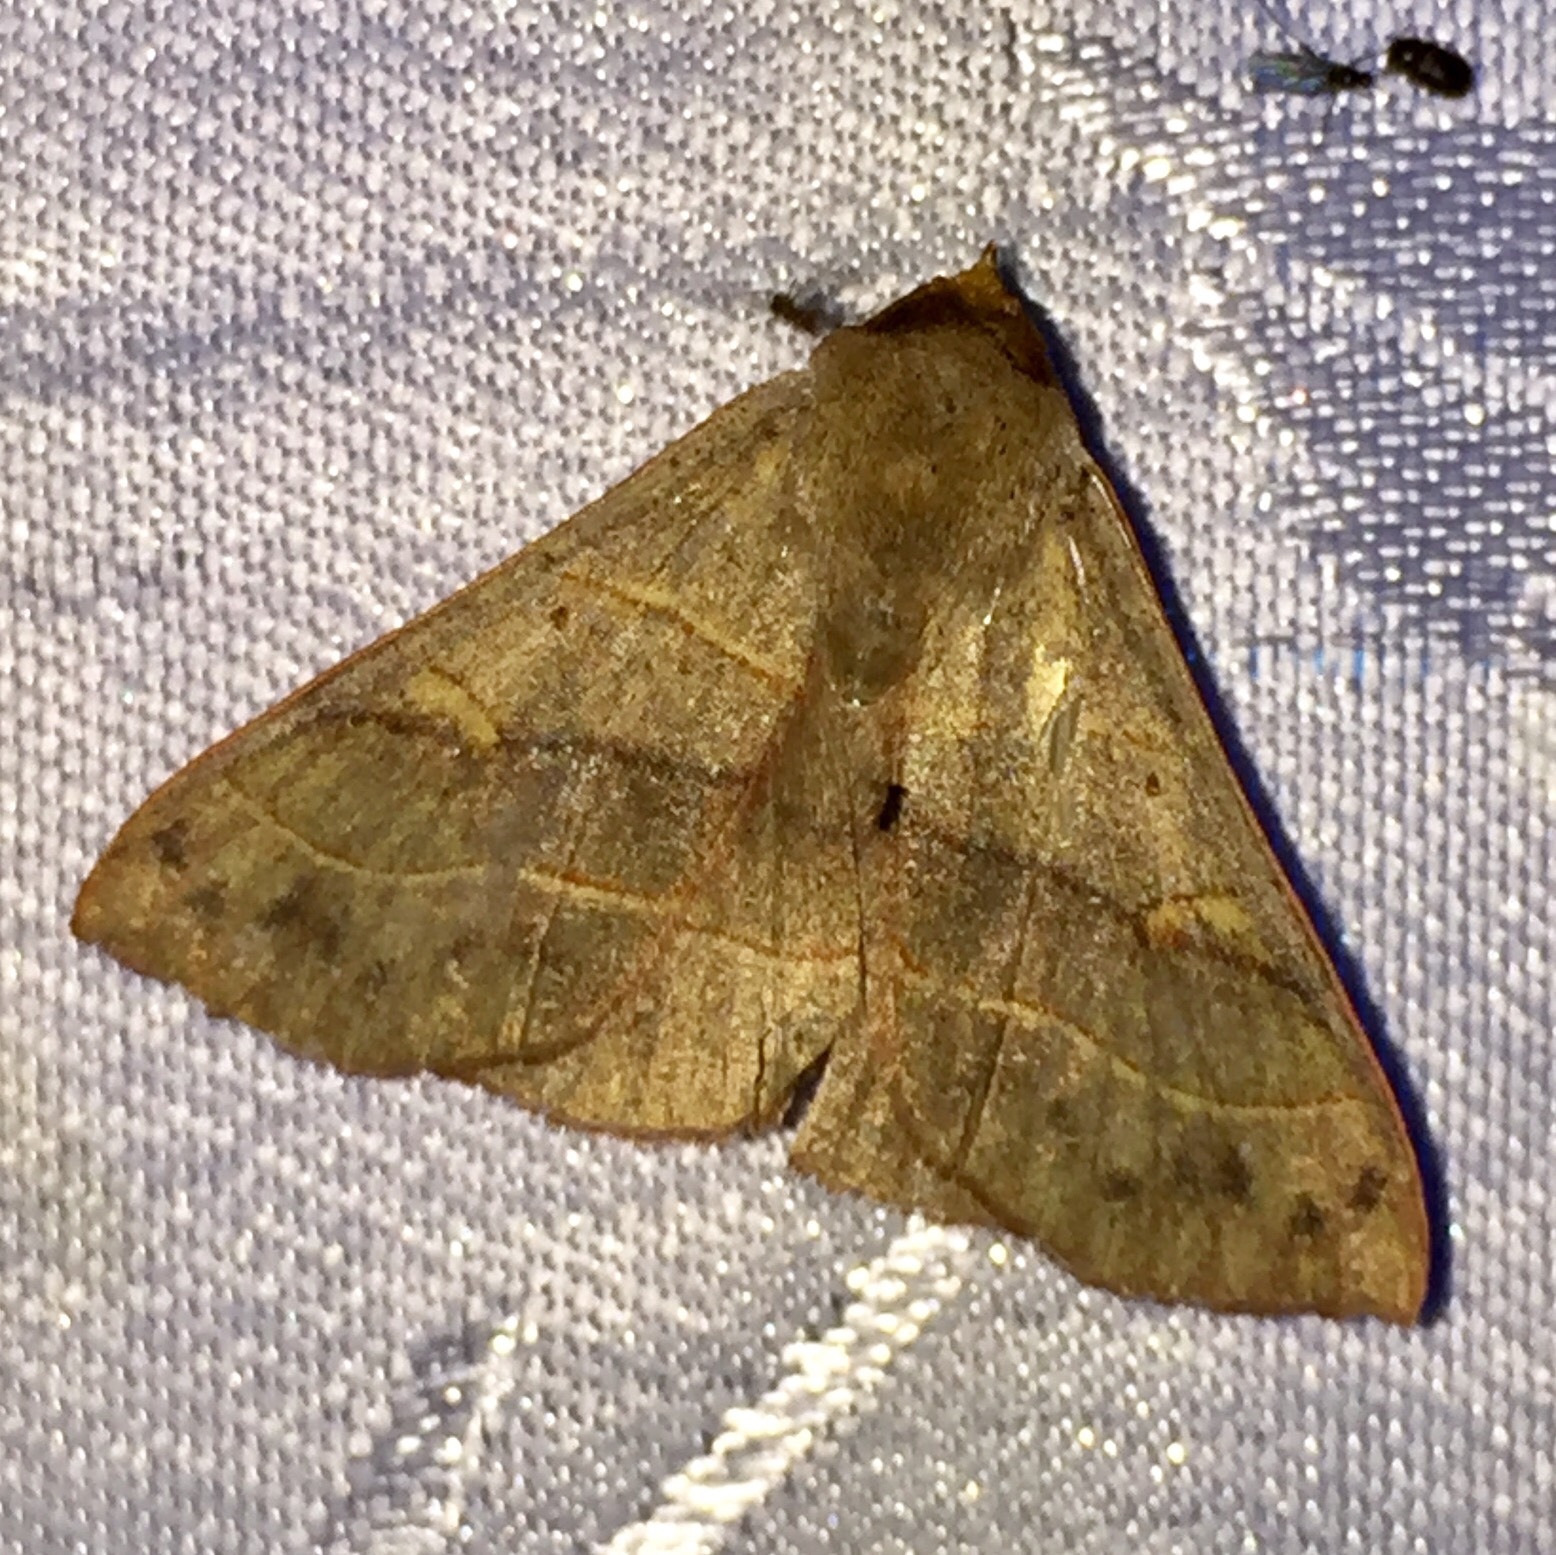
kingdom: Animalia
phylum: Arthropoda
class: Insecta
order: Lepidoptera
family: Erebidae
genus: Panopoda
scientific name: Panopoda rufimargo
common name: Red-lined panopoda moth
